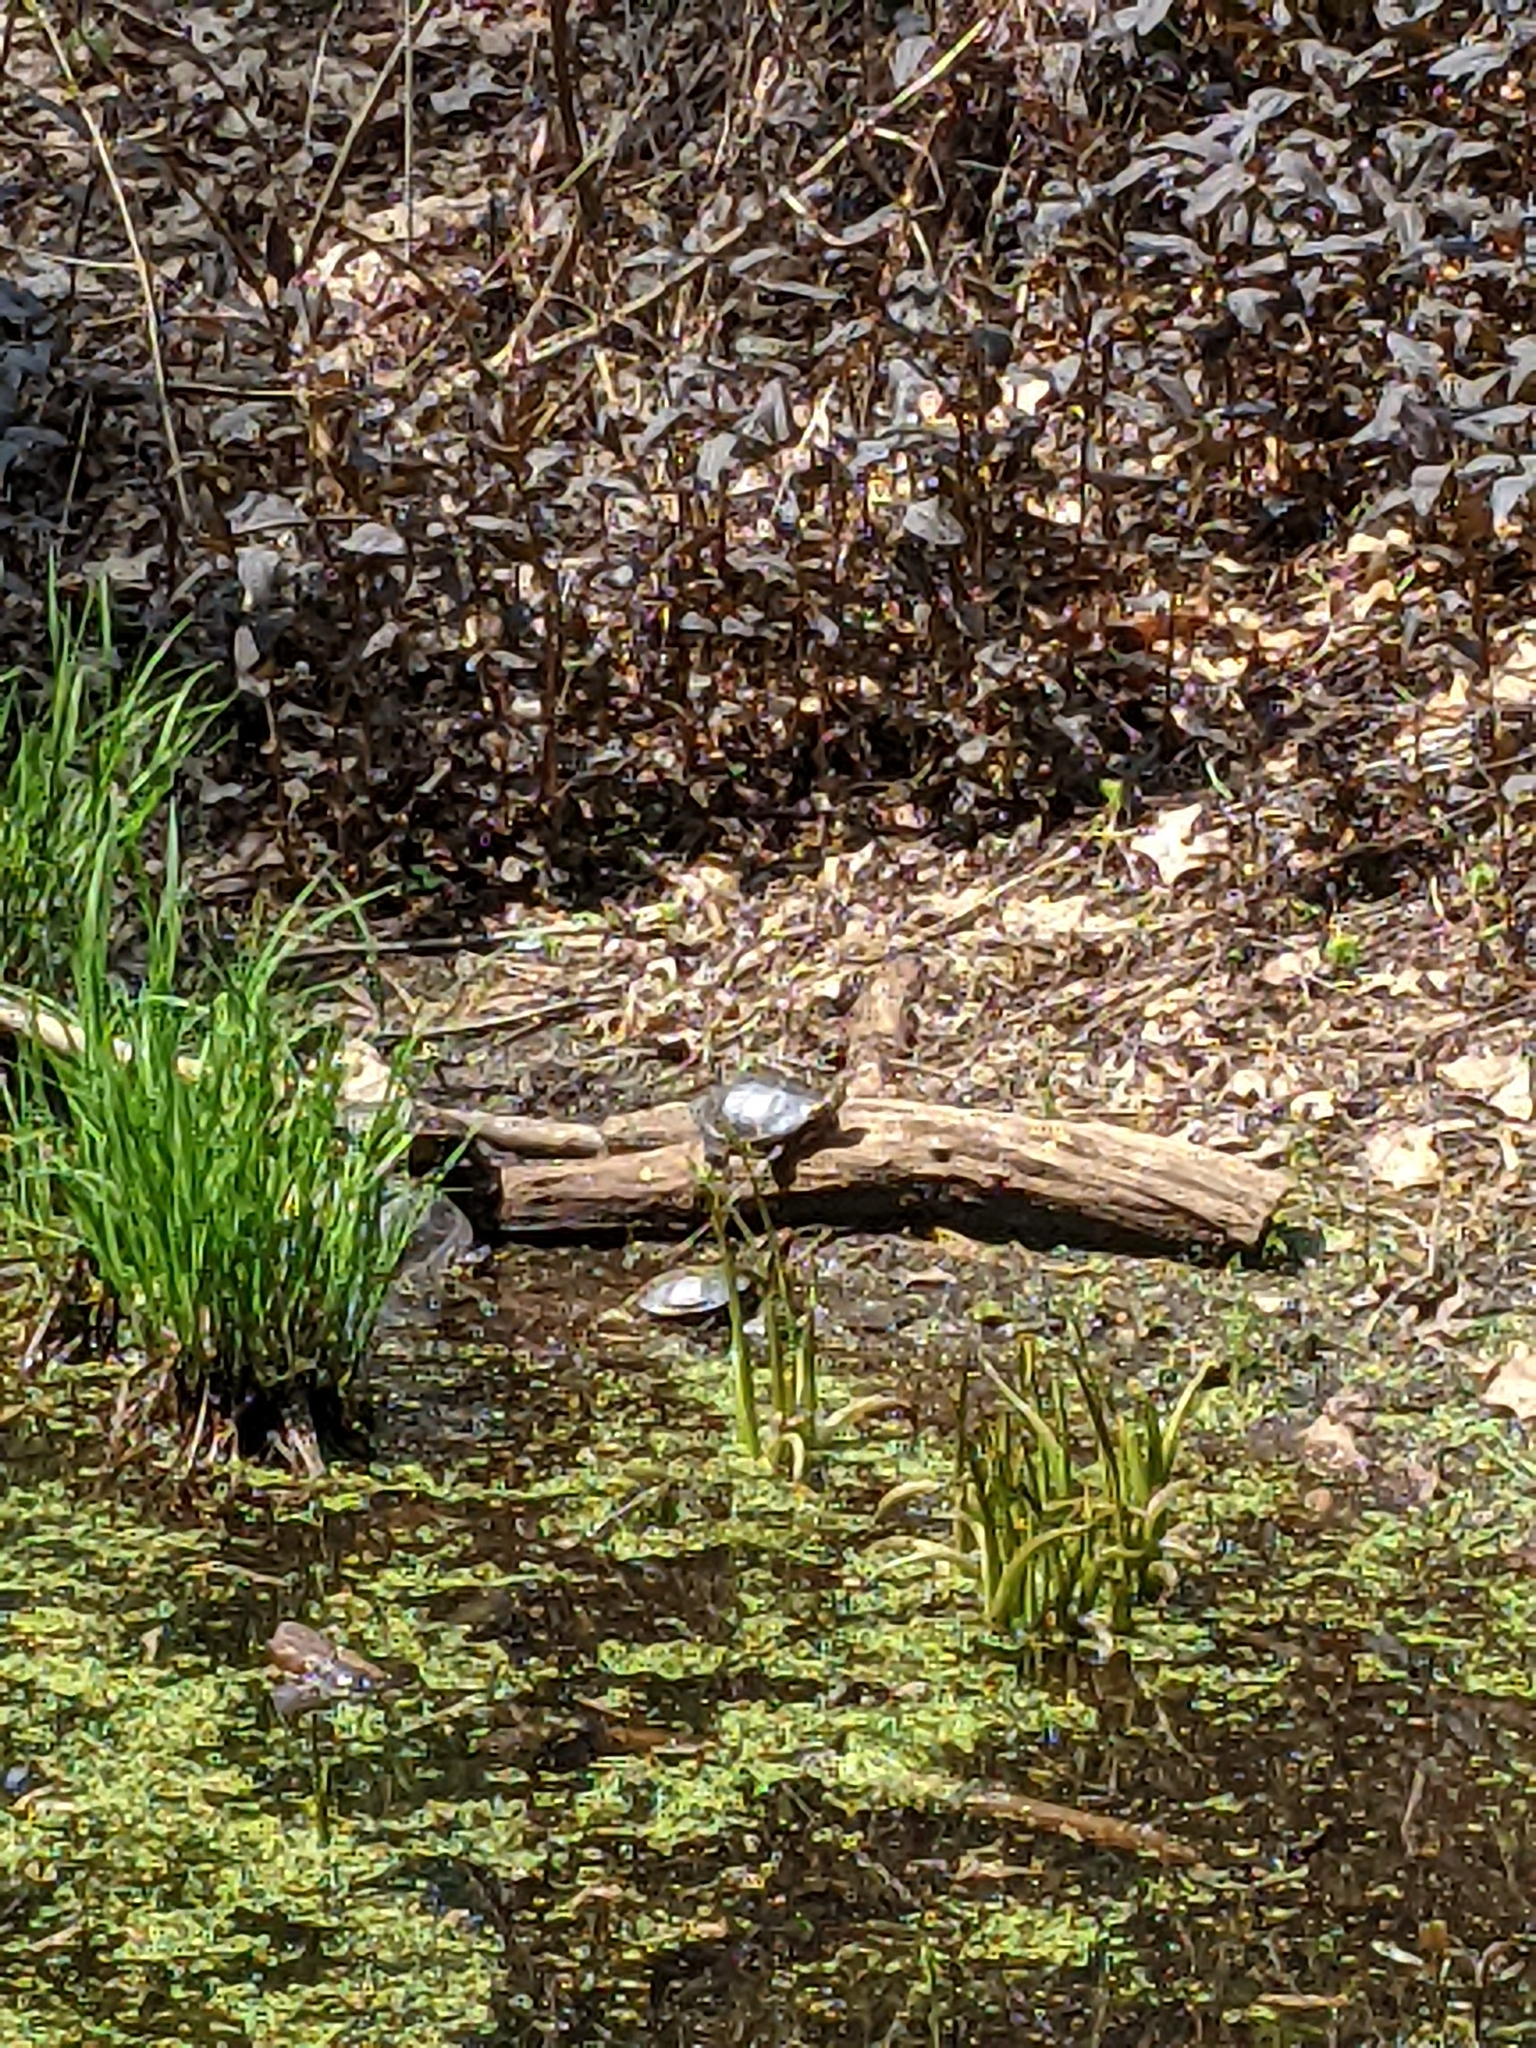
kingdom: Animalia
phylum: Chordata
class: Testudines
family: Emydidae
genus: Chrysemys
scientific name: Chrysemys picta
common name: Painted turtle
